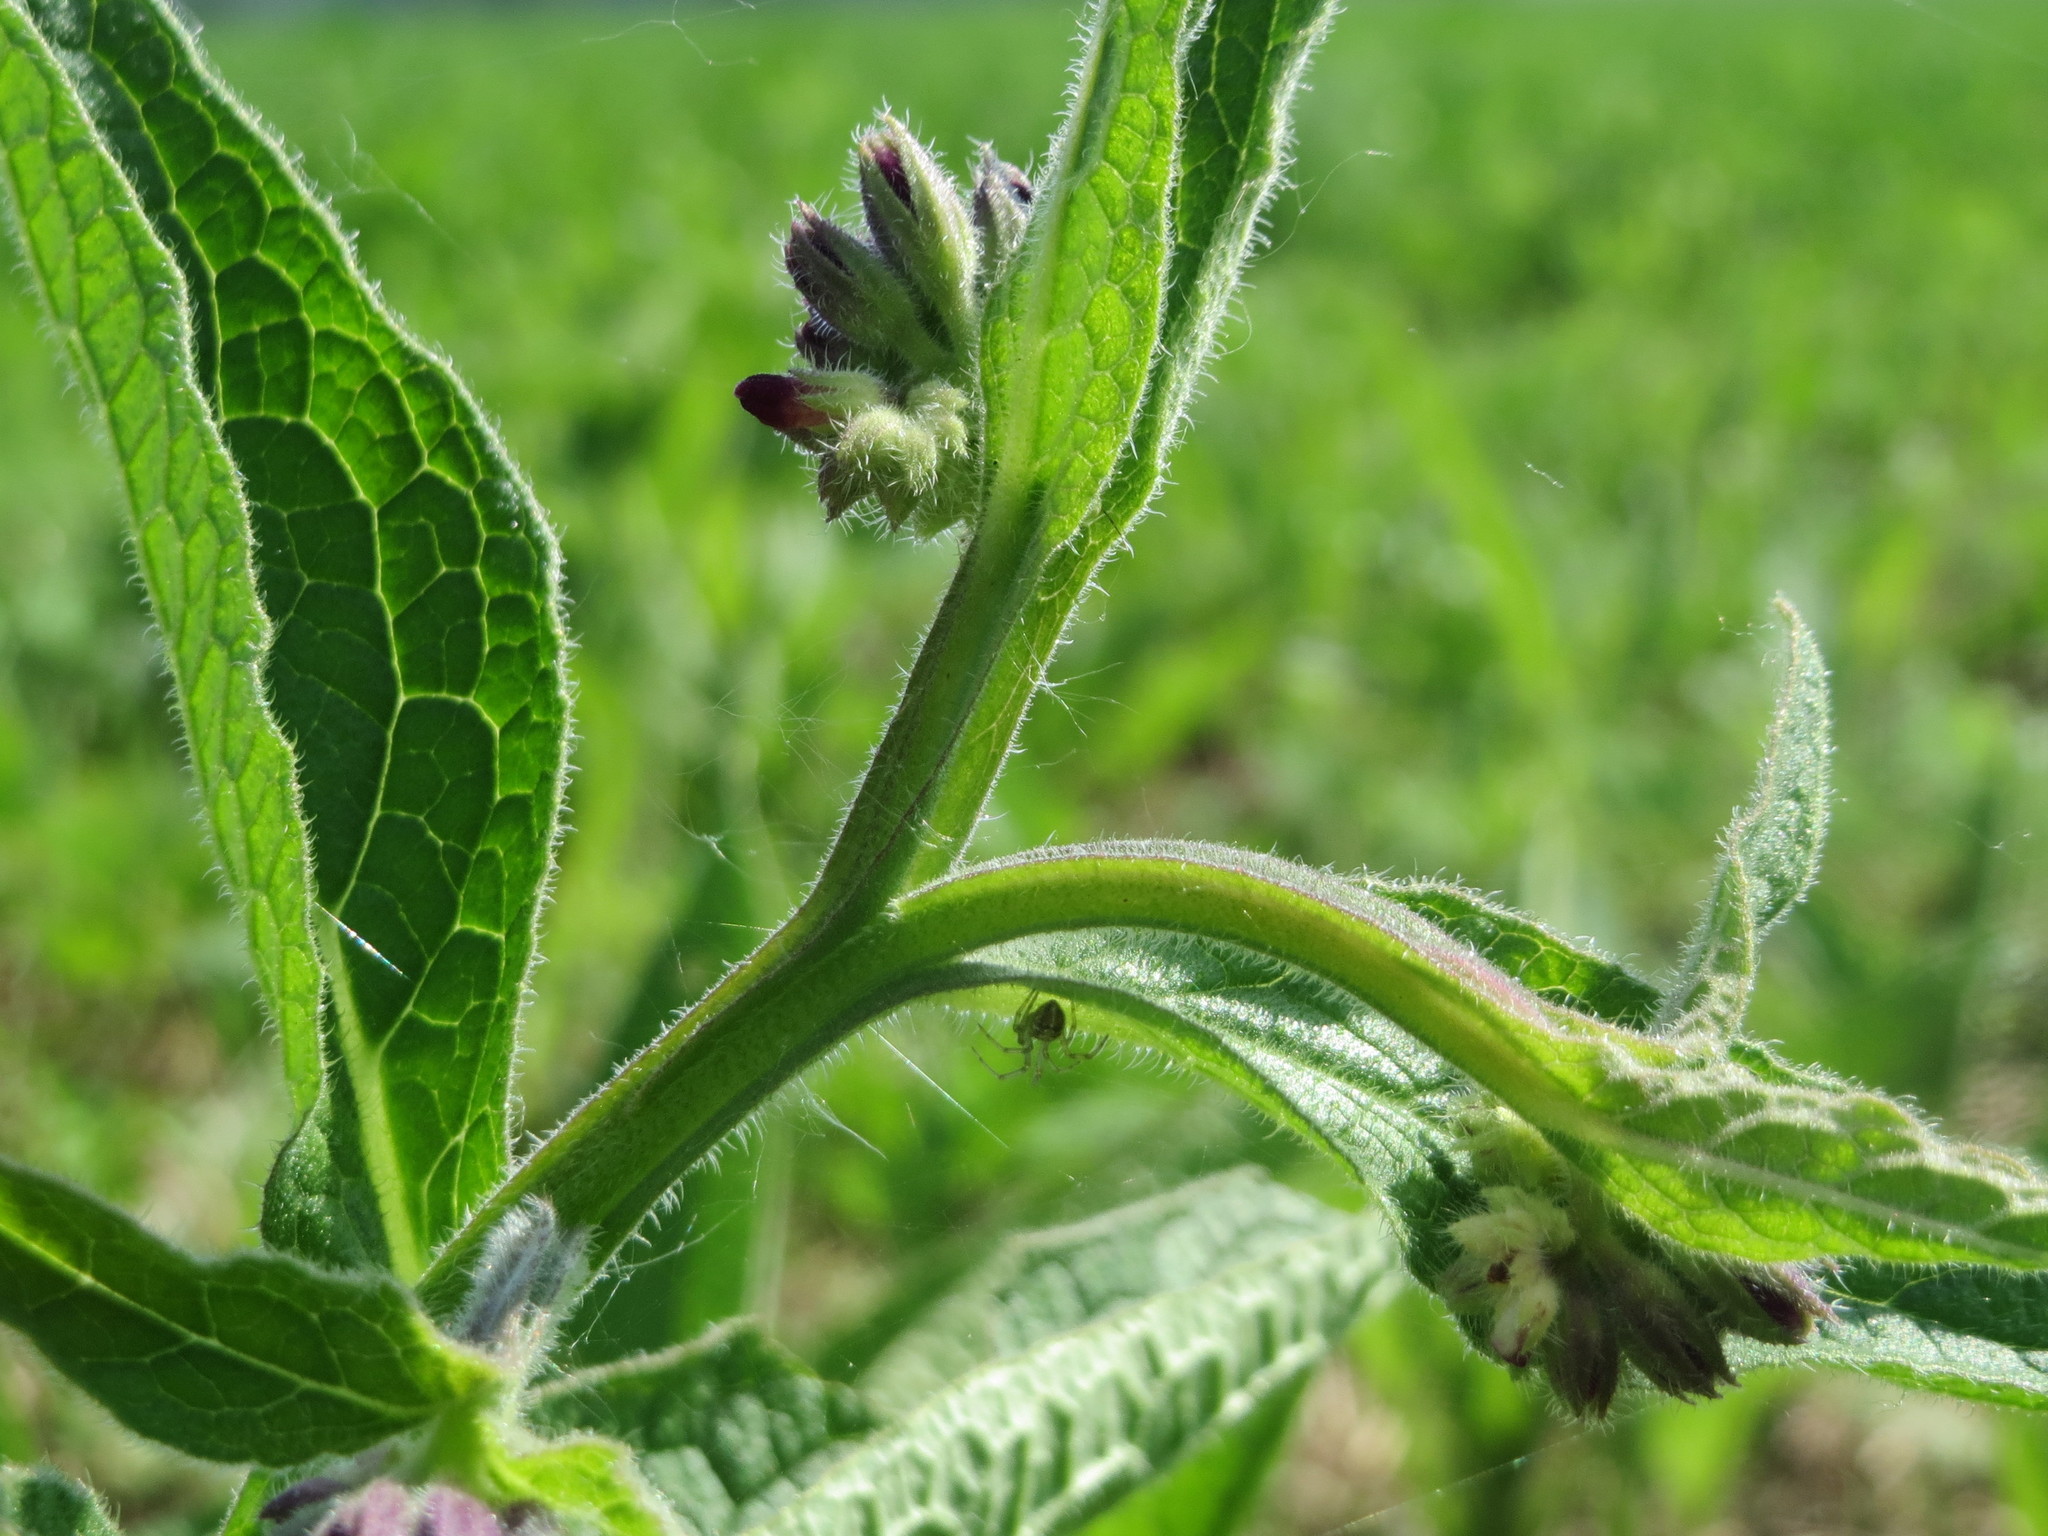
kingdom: Plantae
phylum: Tracheophyta
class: Magnoliopsida
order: Boraginales
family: Boraginaceae
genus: Symphytum
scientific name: Symphytum officinale
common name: Common comfrey
